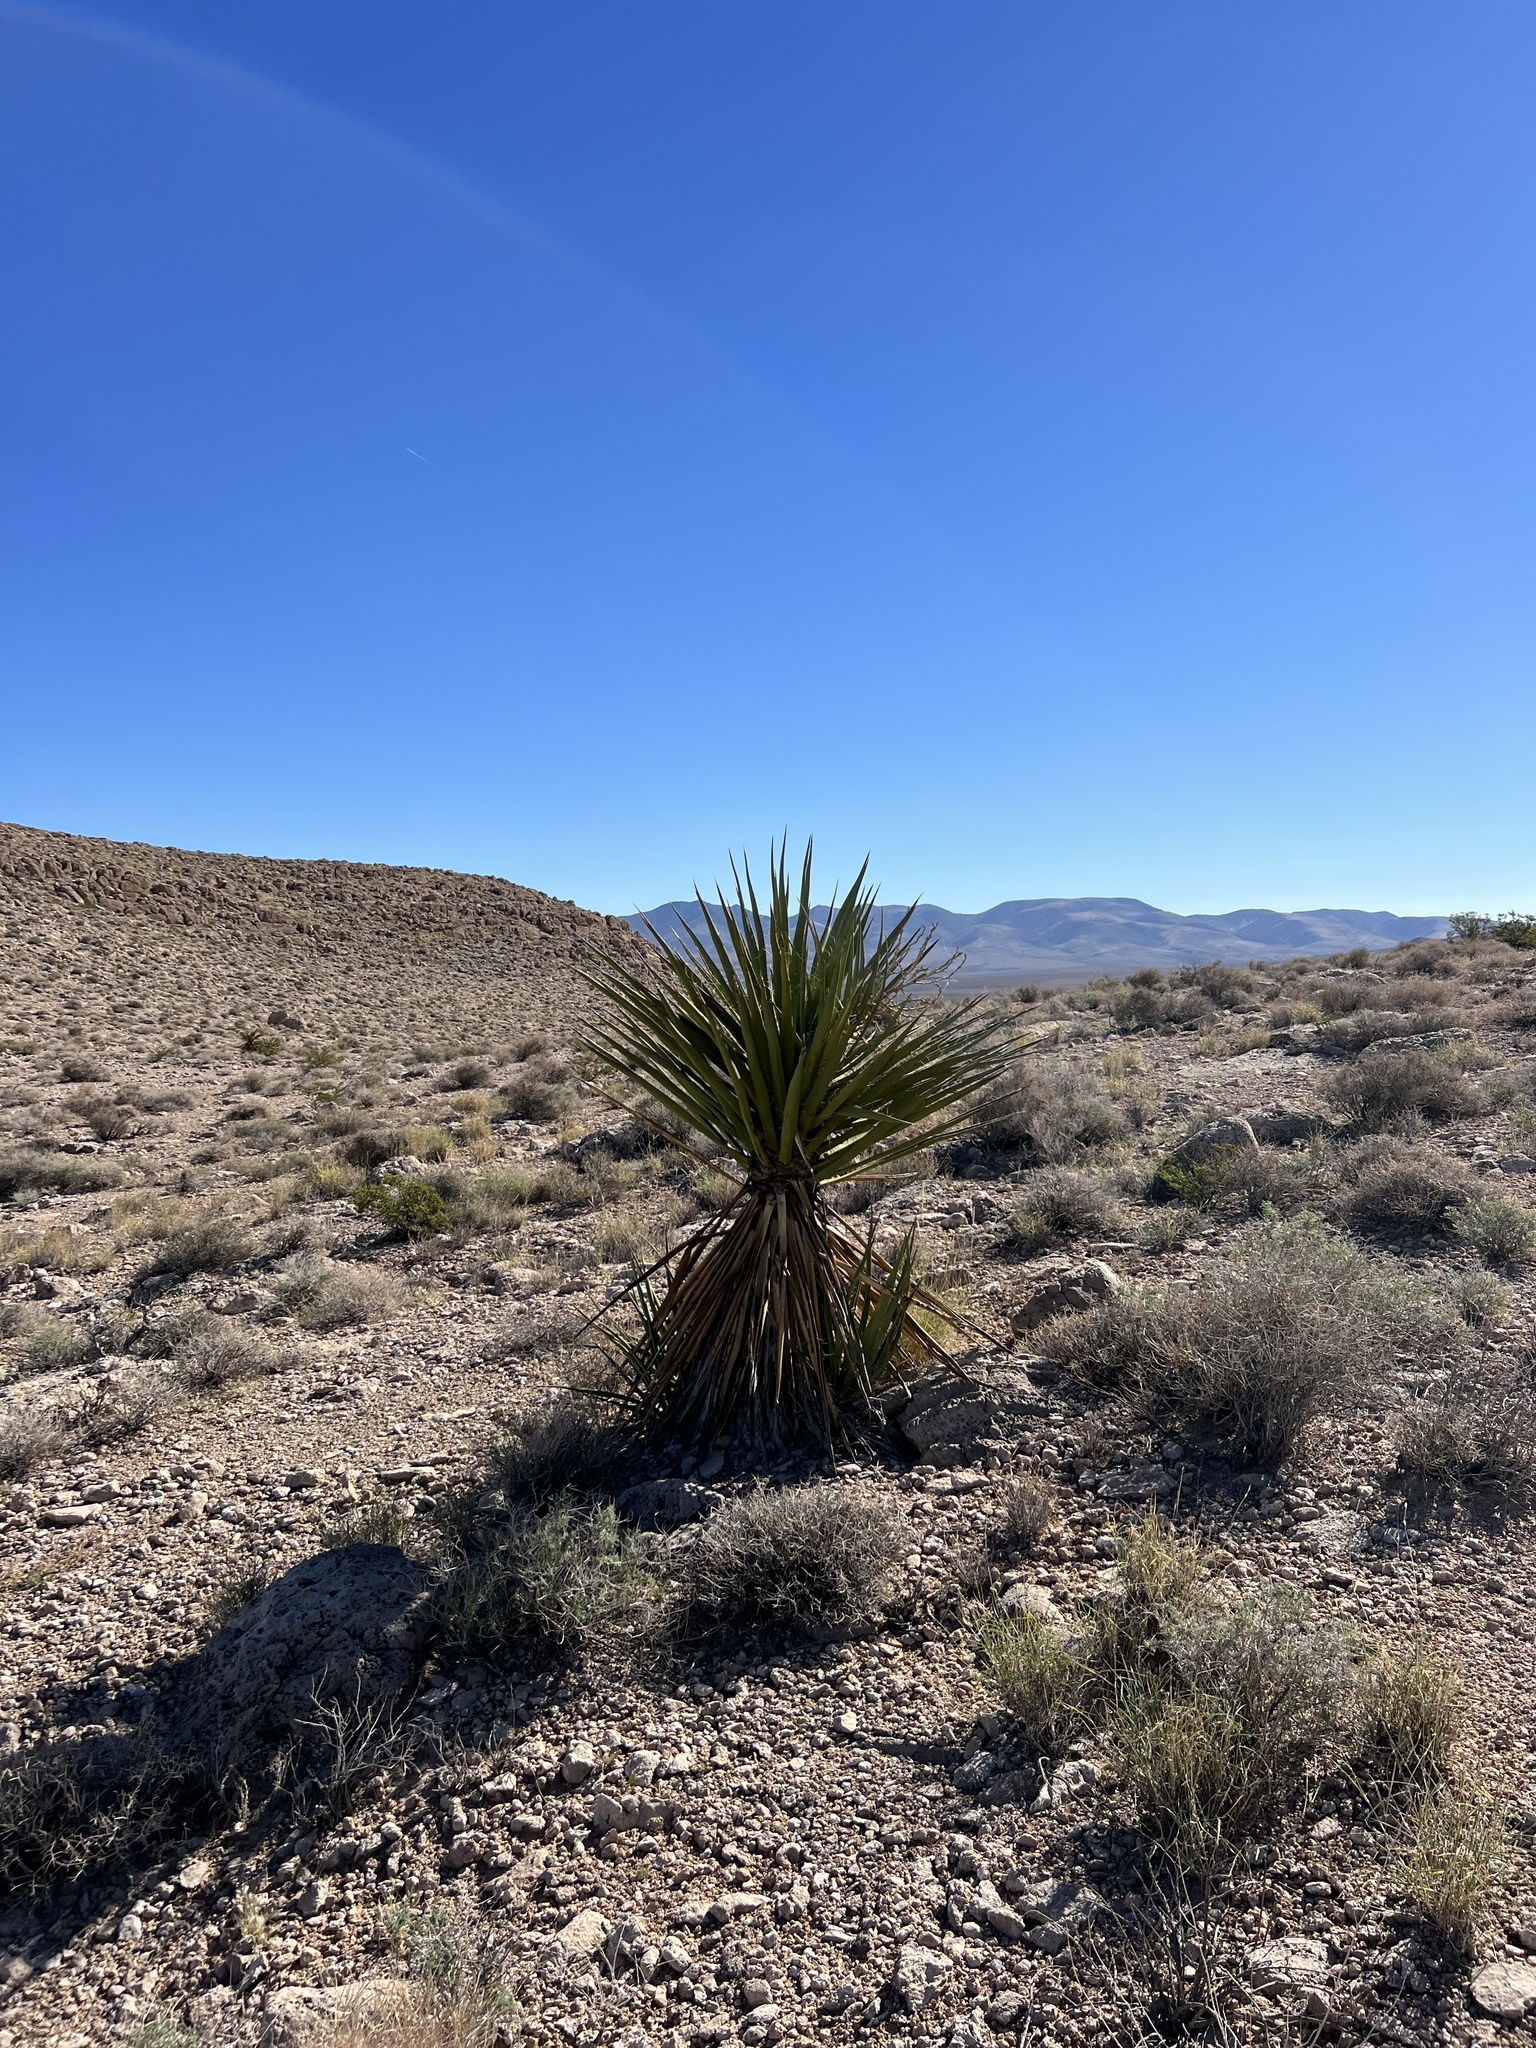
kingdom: Plantae
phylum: Tracheophyta
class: Liliopsida
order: Asparagales
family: Asparagaceae
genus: Yucca
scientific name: Yucca schidigera
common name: Mojave yucca
